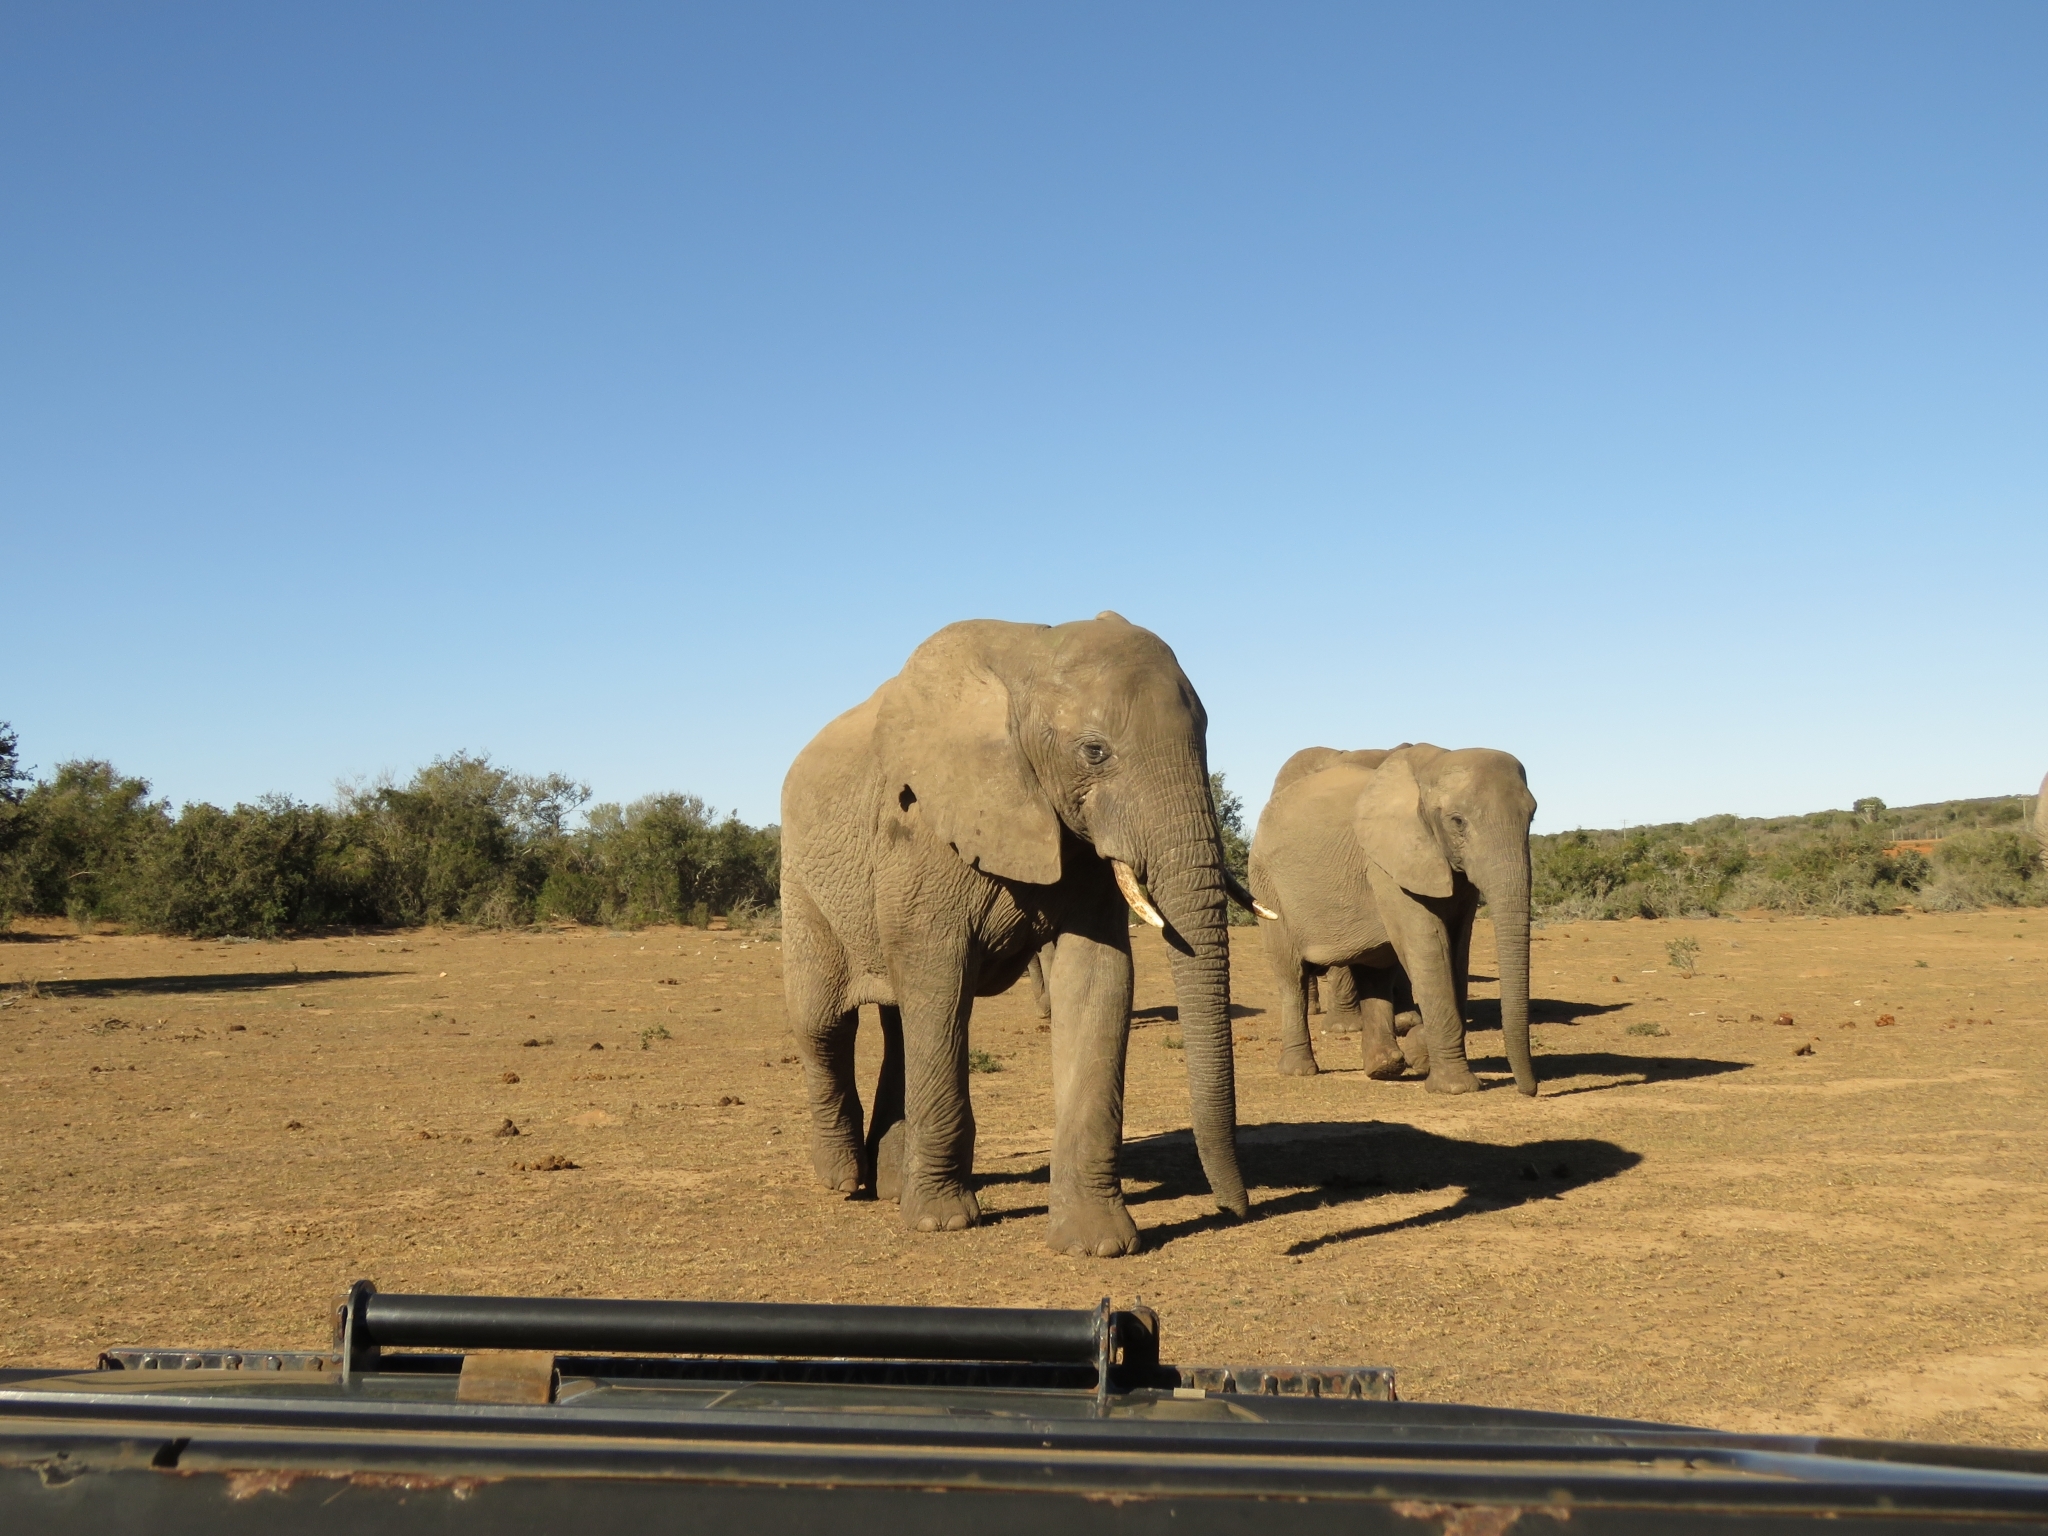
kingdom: Animalia
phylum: Chordata
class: Mammalia
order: Proboscidea
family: Elephantidae
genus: Loxodonta
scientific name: Loxodonta africana
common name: African elephant
